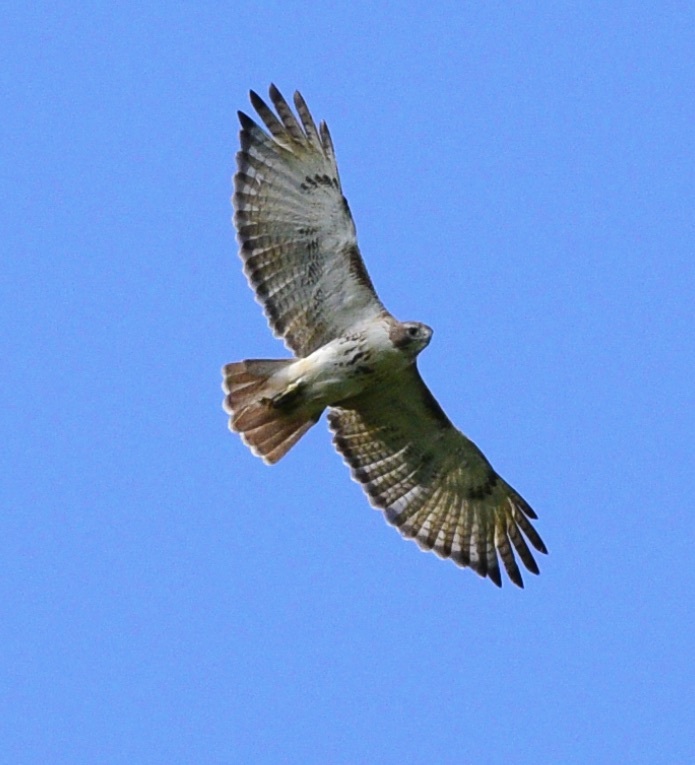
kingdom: Animalia
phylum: Chordata
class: Aves
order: Accipitriformes
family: Accipitridae
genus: Buteo
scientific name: Buteo jamaicensis
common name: Red-tailed hawk
